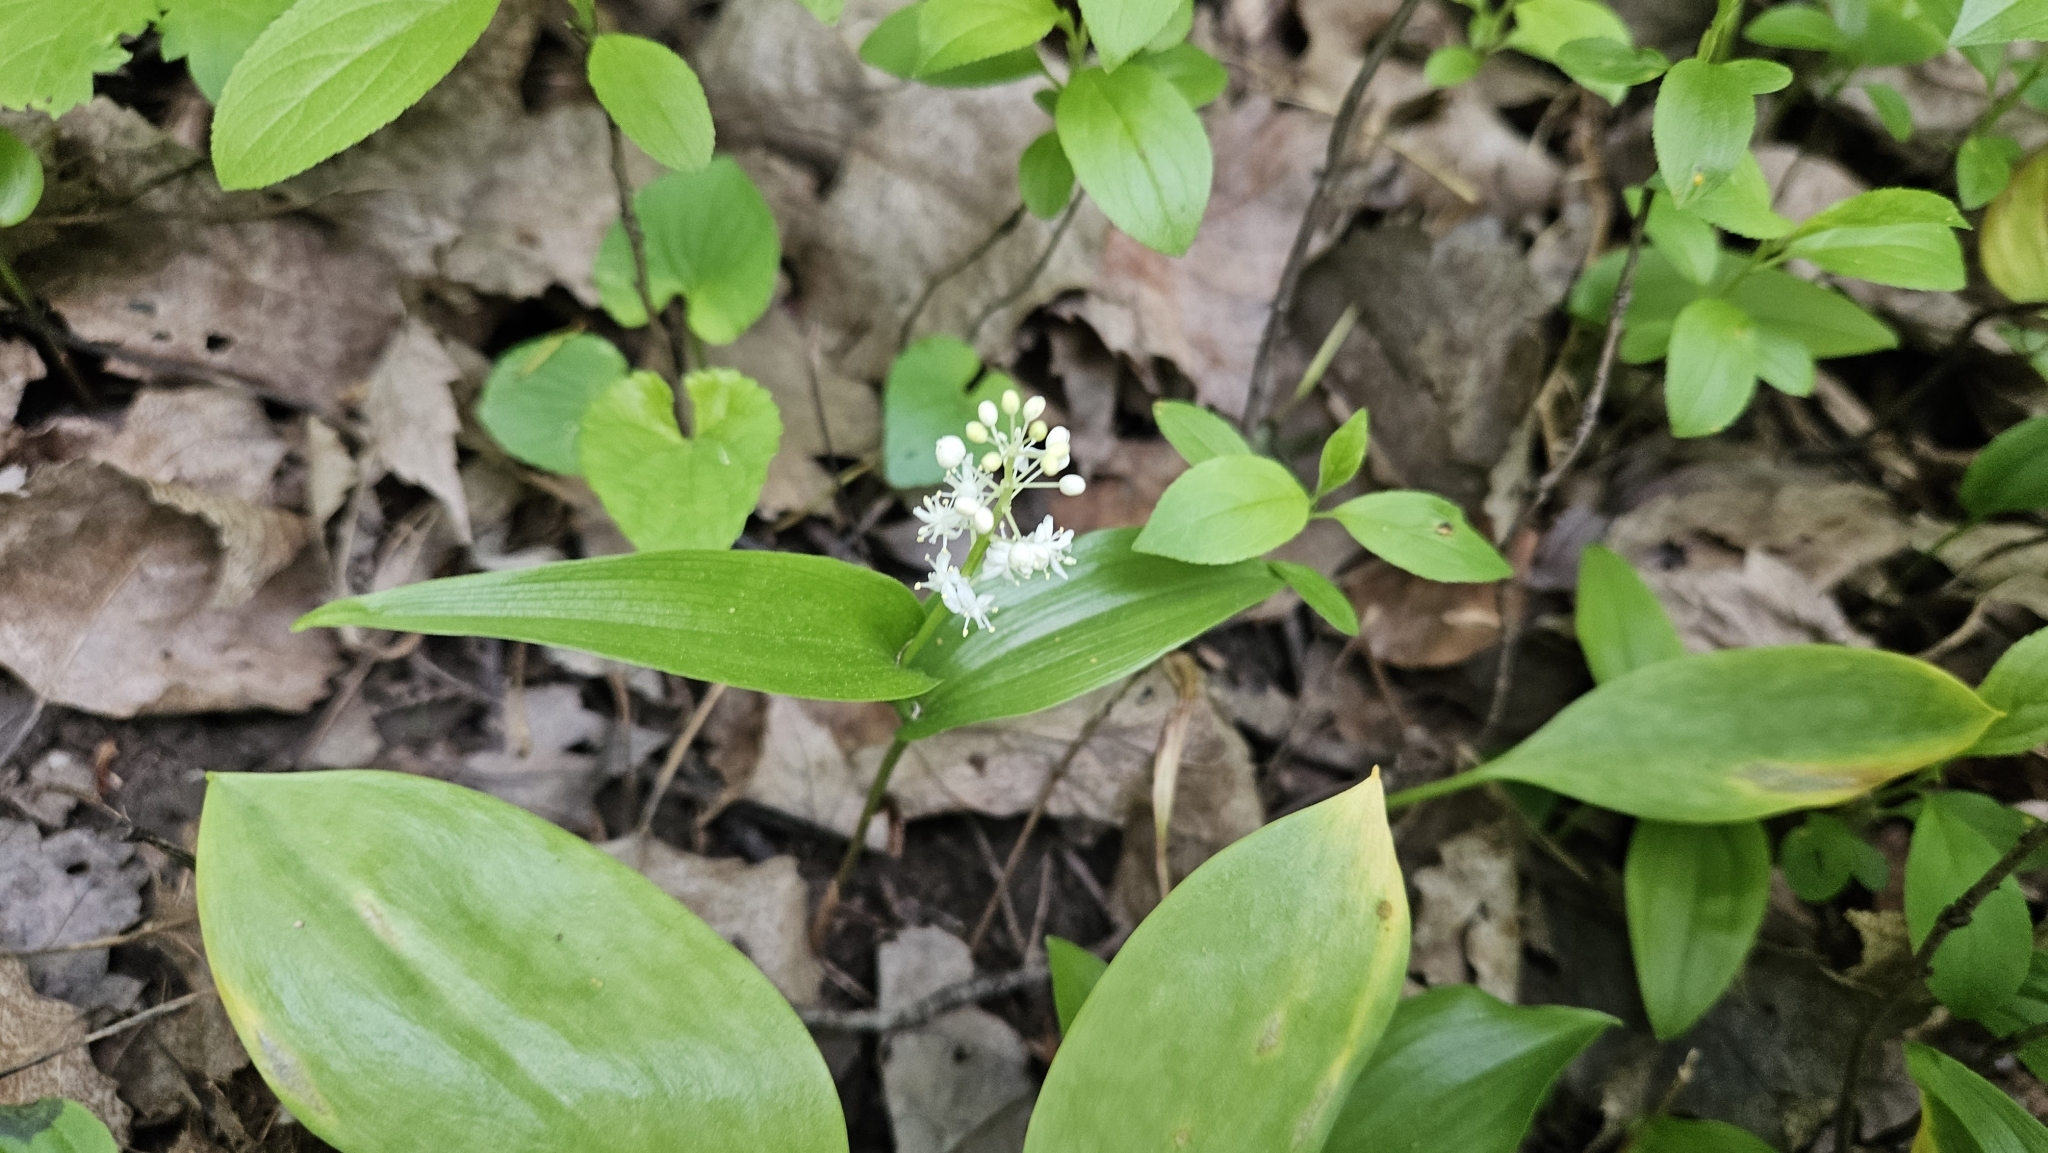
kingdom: Plantae
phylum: Tracheophyta
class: Liliopsida
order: Asparagales
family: Asparagaceae
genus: Maianthemum
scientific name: Maianthemum canadense
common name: False lily-of-the-valley
